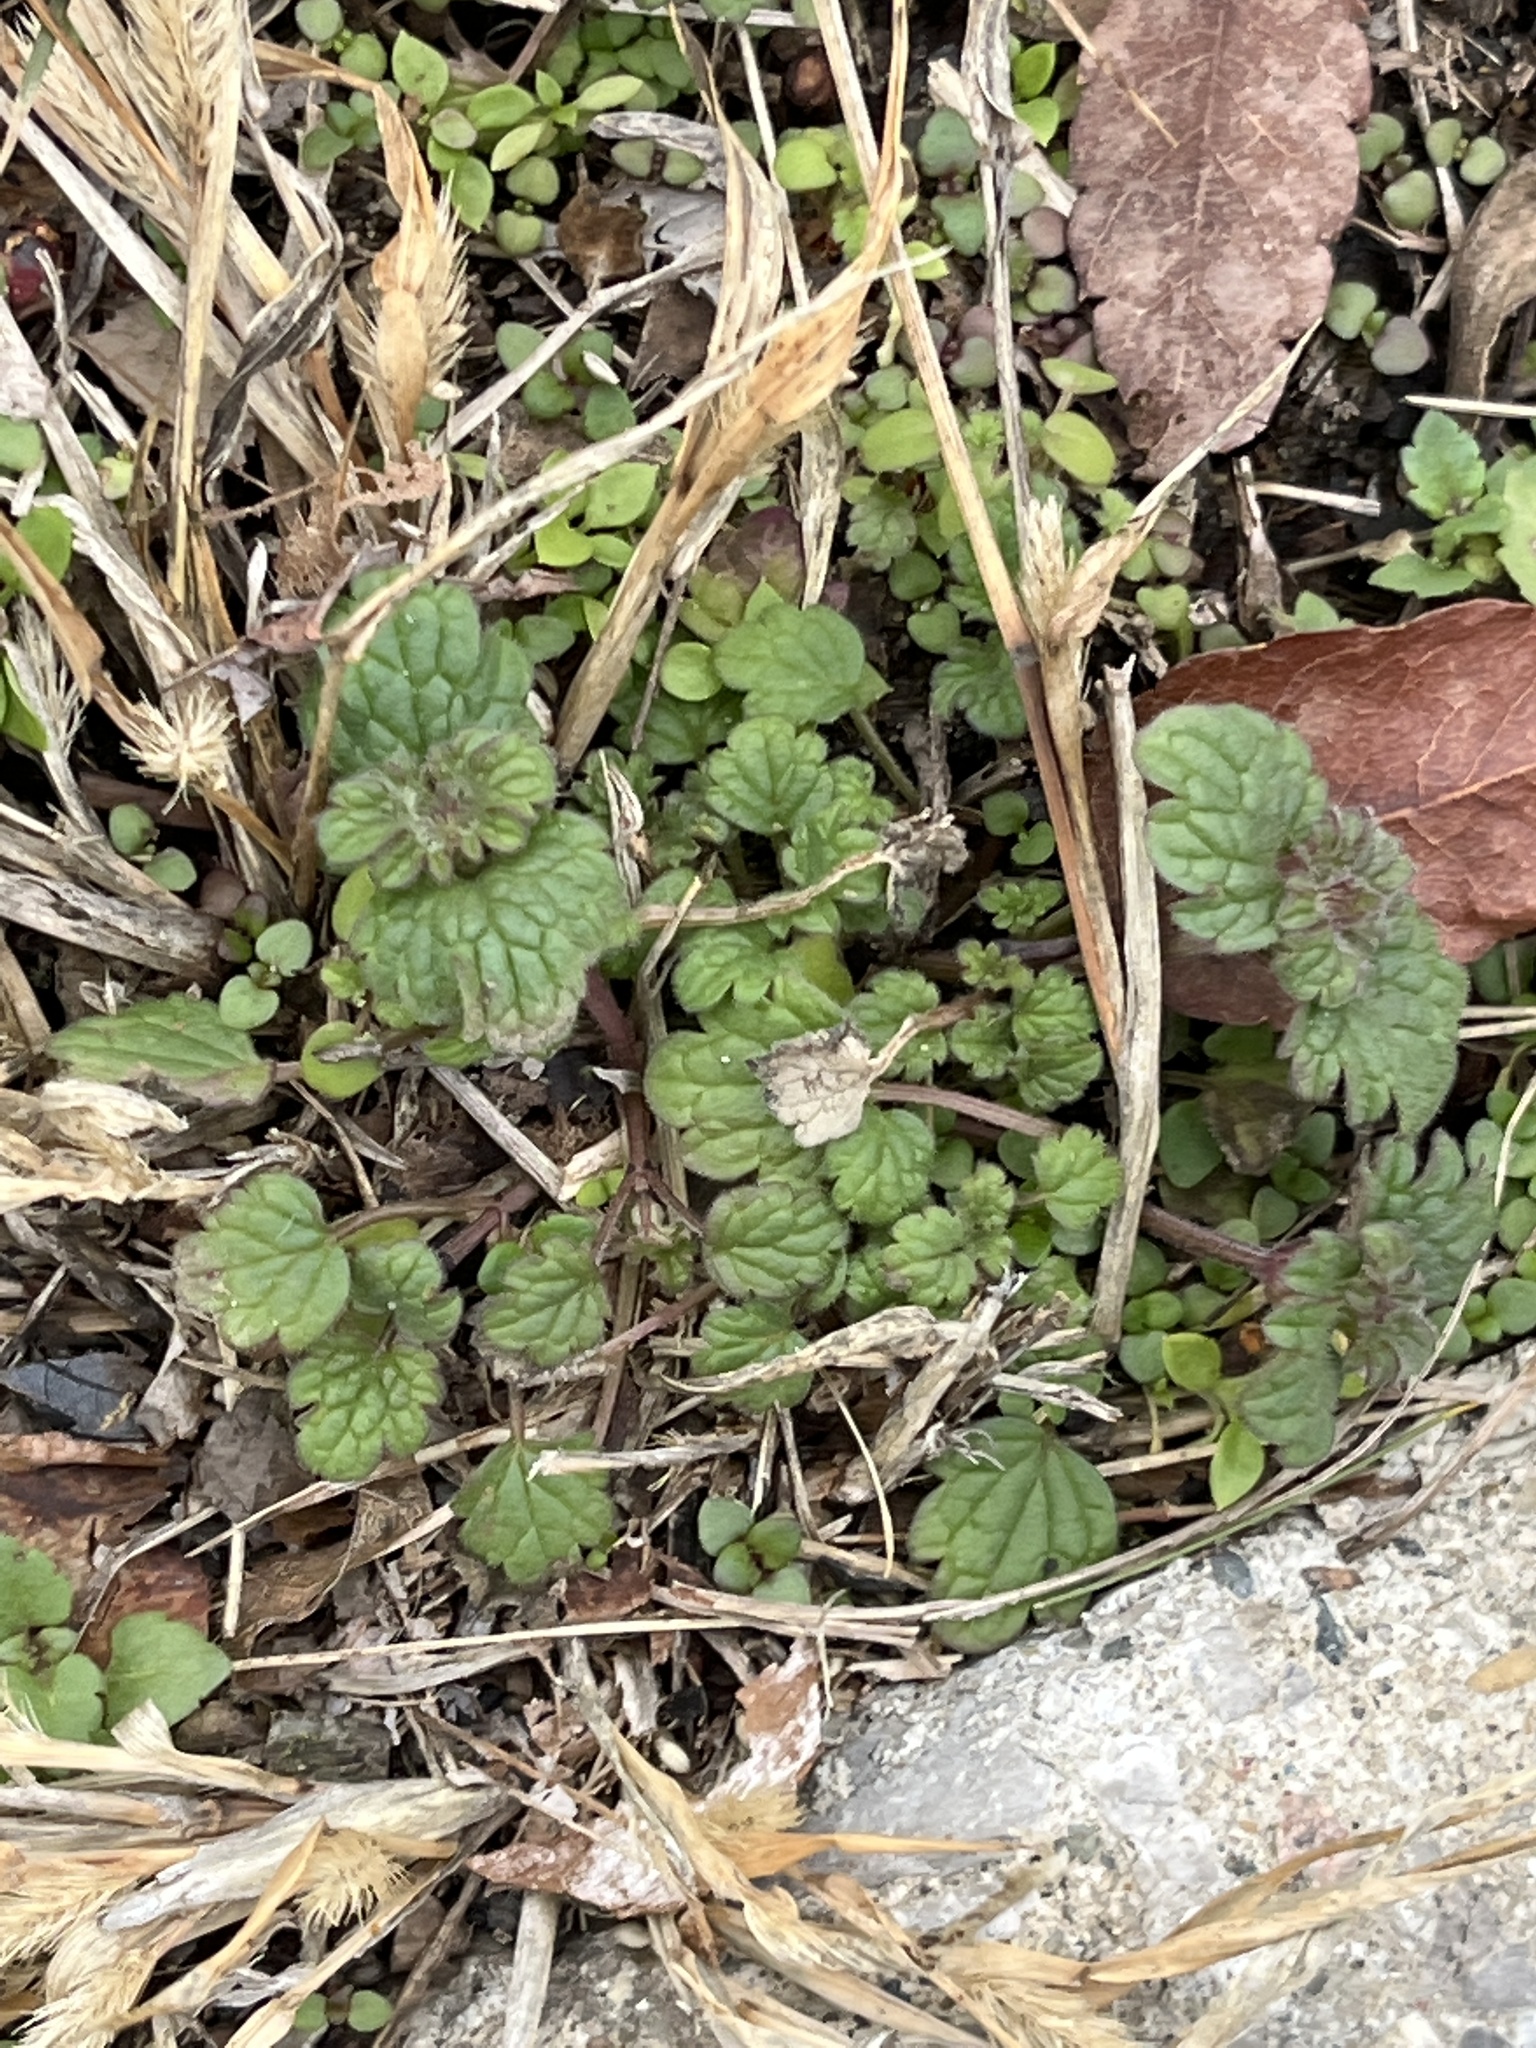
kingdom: Plantae
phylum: Tracheophyta
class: Magnoliopsida
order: Lamiales
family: Lamiaceae
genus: Lamium
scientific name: Lamium amplexicaule
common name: Henbit dead-nettle
